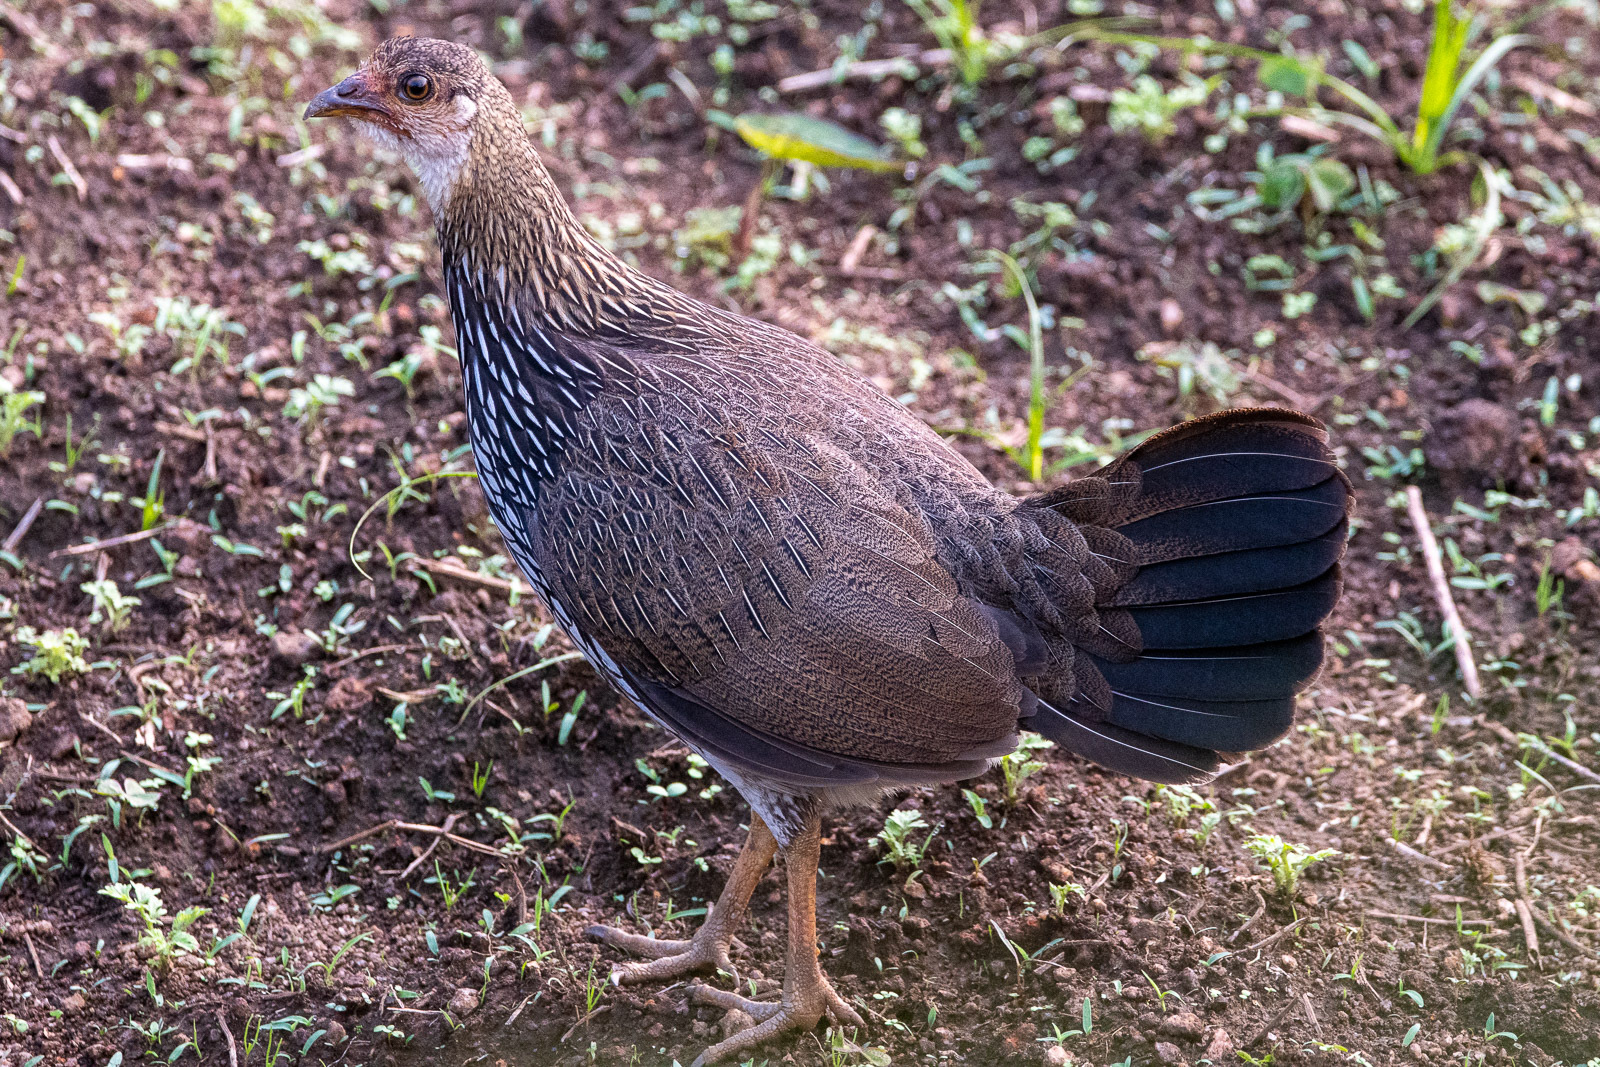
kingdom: Animalia
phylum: Chordata
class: Aves
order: Galliformes
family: Phasianidae
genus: Gallus
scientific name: Gallus sonneratii
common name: Grey junglefowl
